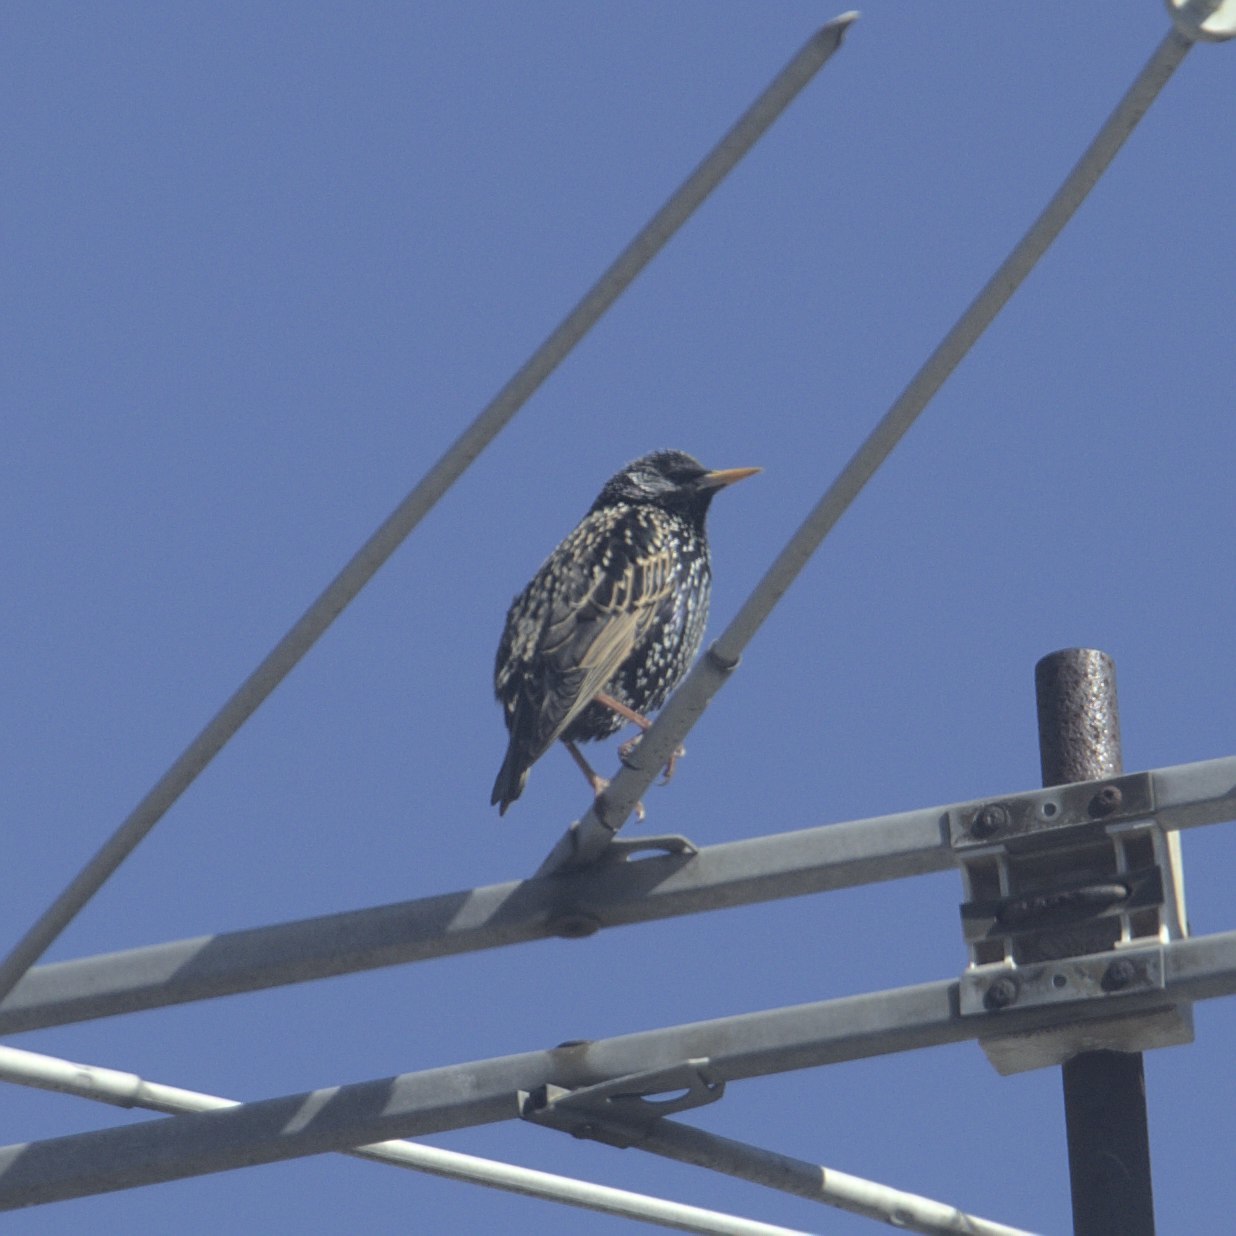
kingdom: Animalia
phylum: Chordata
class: Aves
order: Passeriformes
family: Sturnidae
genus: Sturnus
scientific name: Sturnus vulgaris
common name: Common starling
